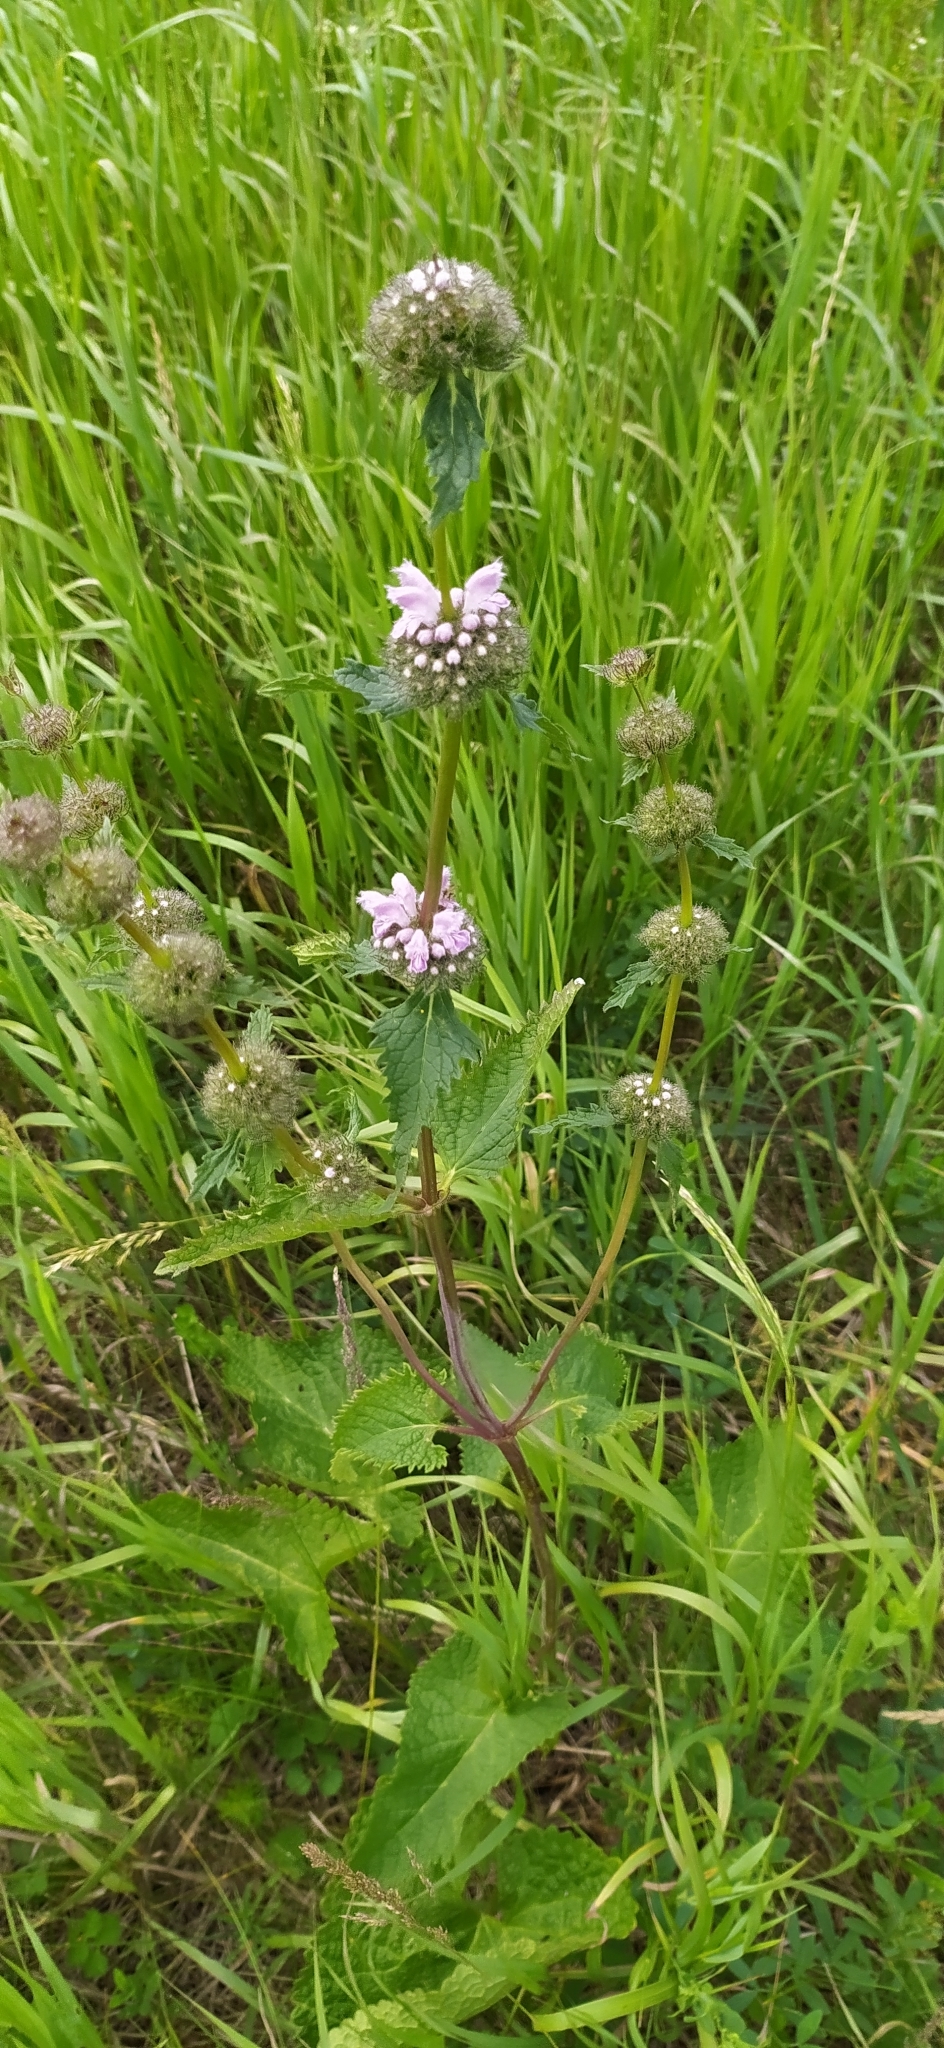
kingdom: Plantae
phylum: Tracheophyta
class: Magnoliopsida
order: Lamiales
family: Lamiaceae
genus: Phlomoides
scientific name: Phlomoides tuberosa
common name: Tuberous jerusalem sage
